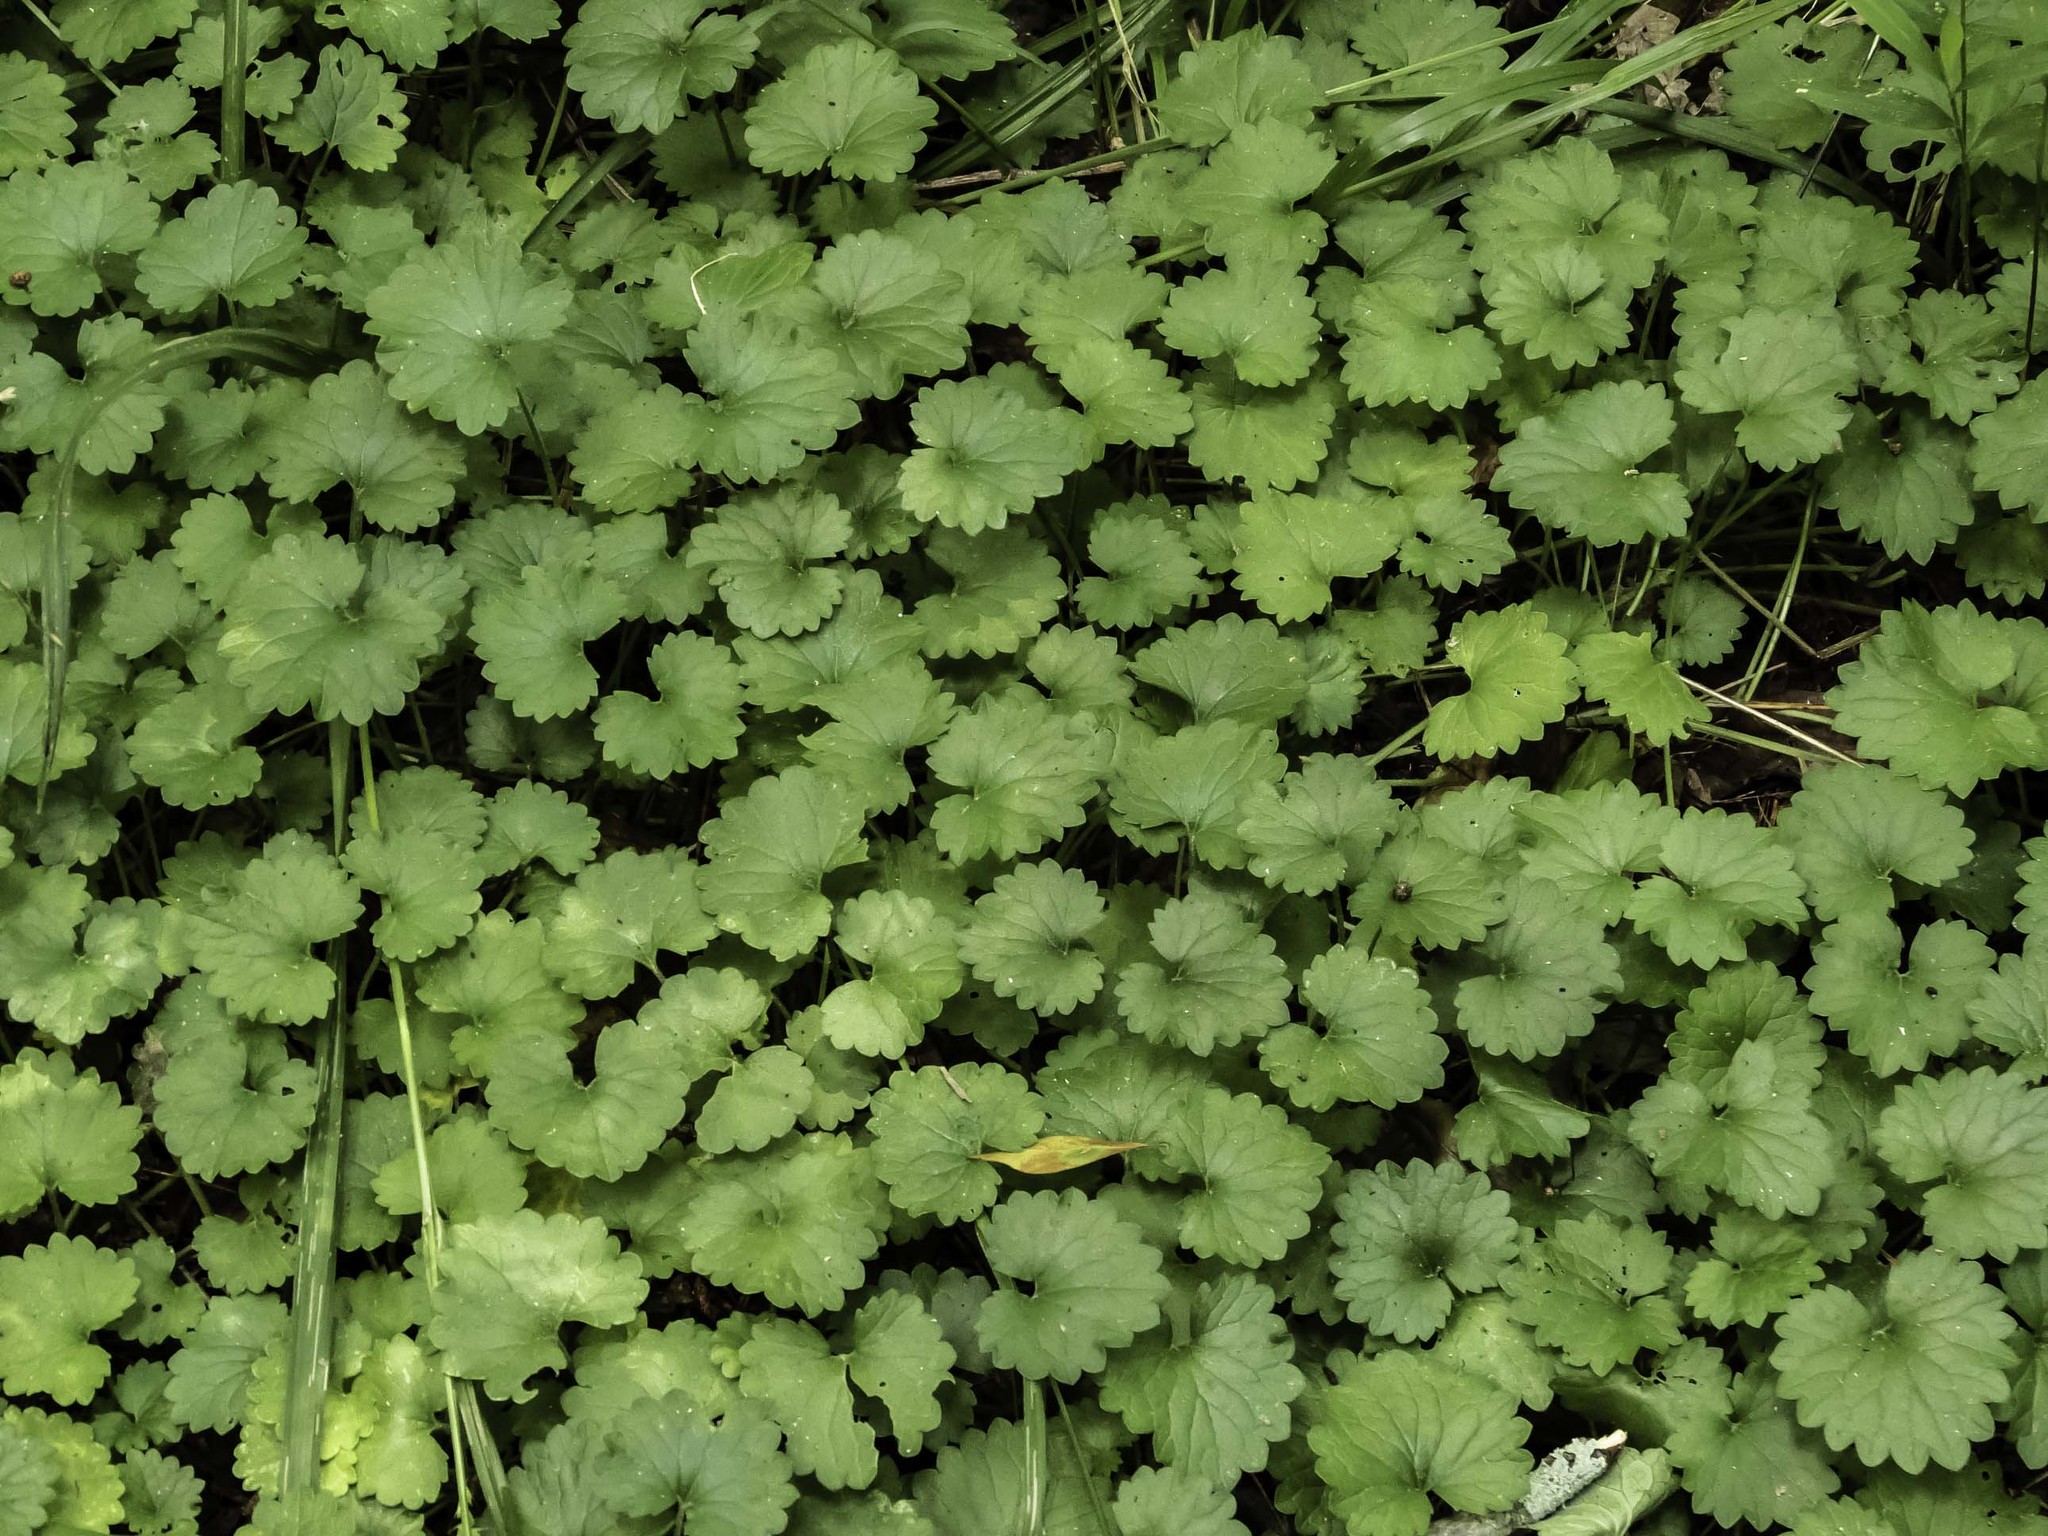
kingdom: Plantae
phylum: Tracheophyta
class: Magnoliopsida
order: Lamiales
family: Lamiaceae
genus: Glechoma
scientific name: Glechoma hederacea
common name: Ground ivy
